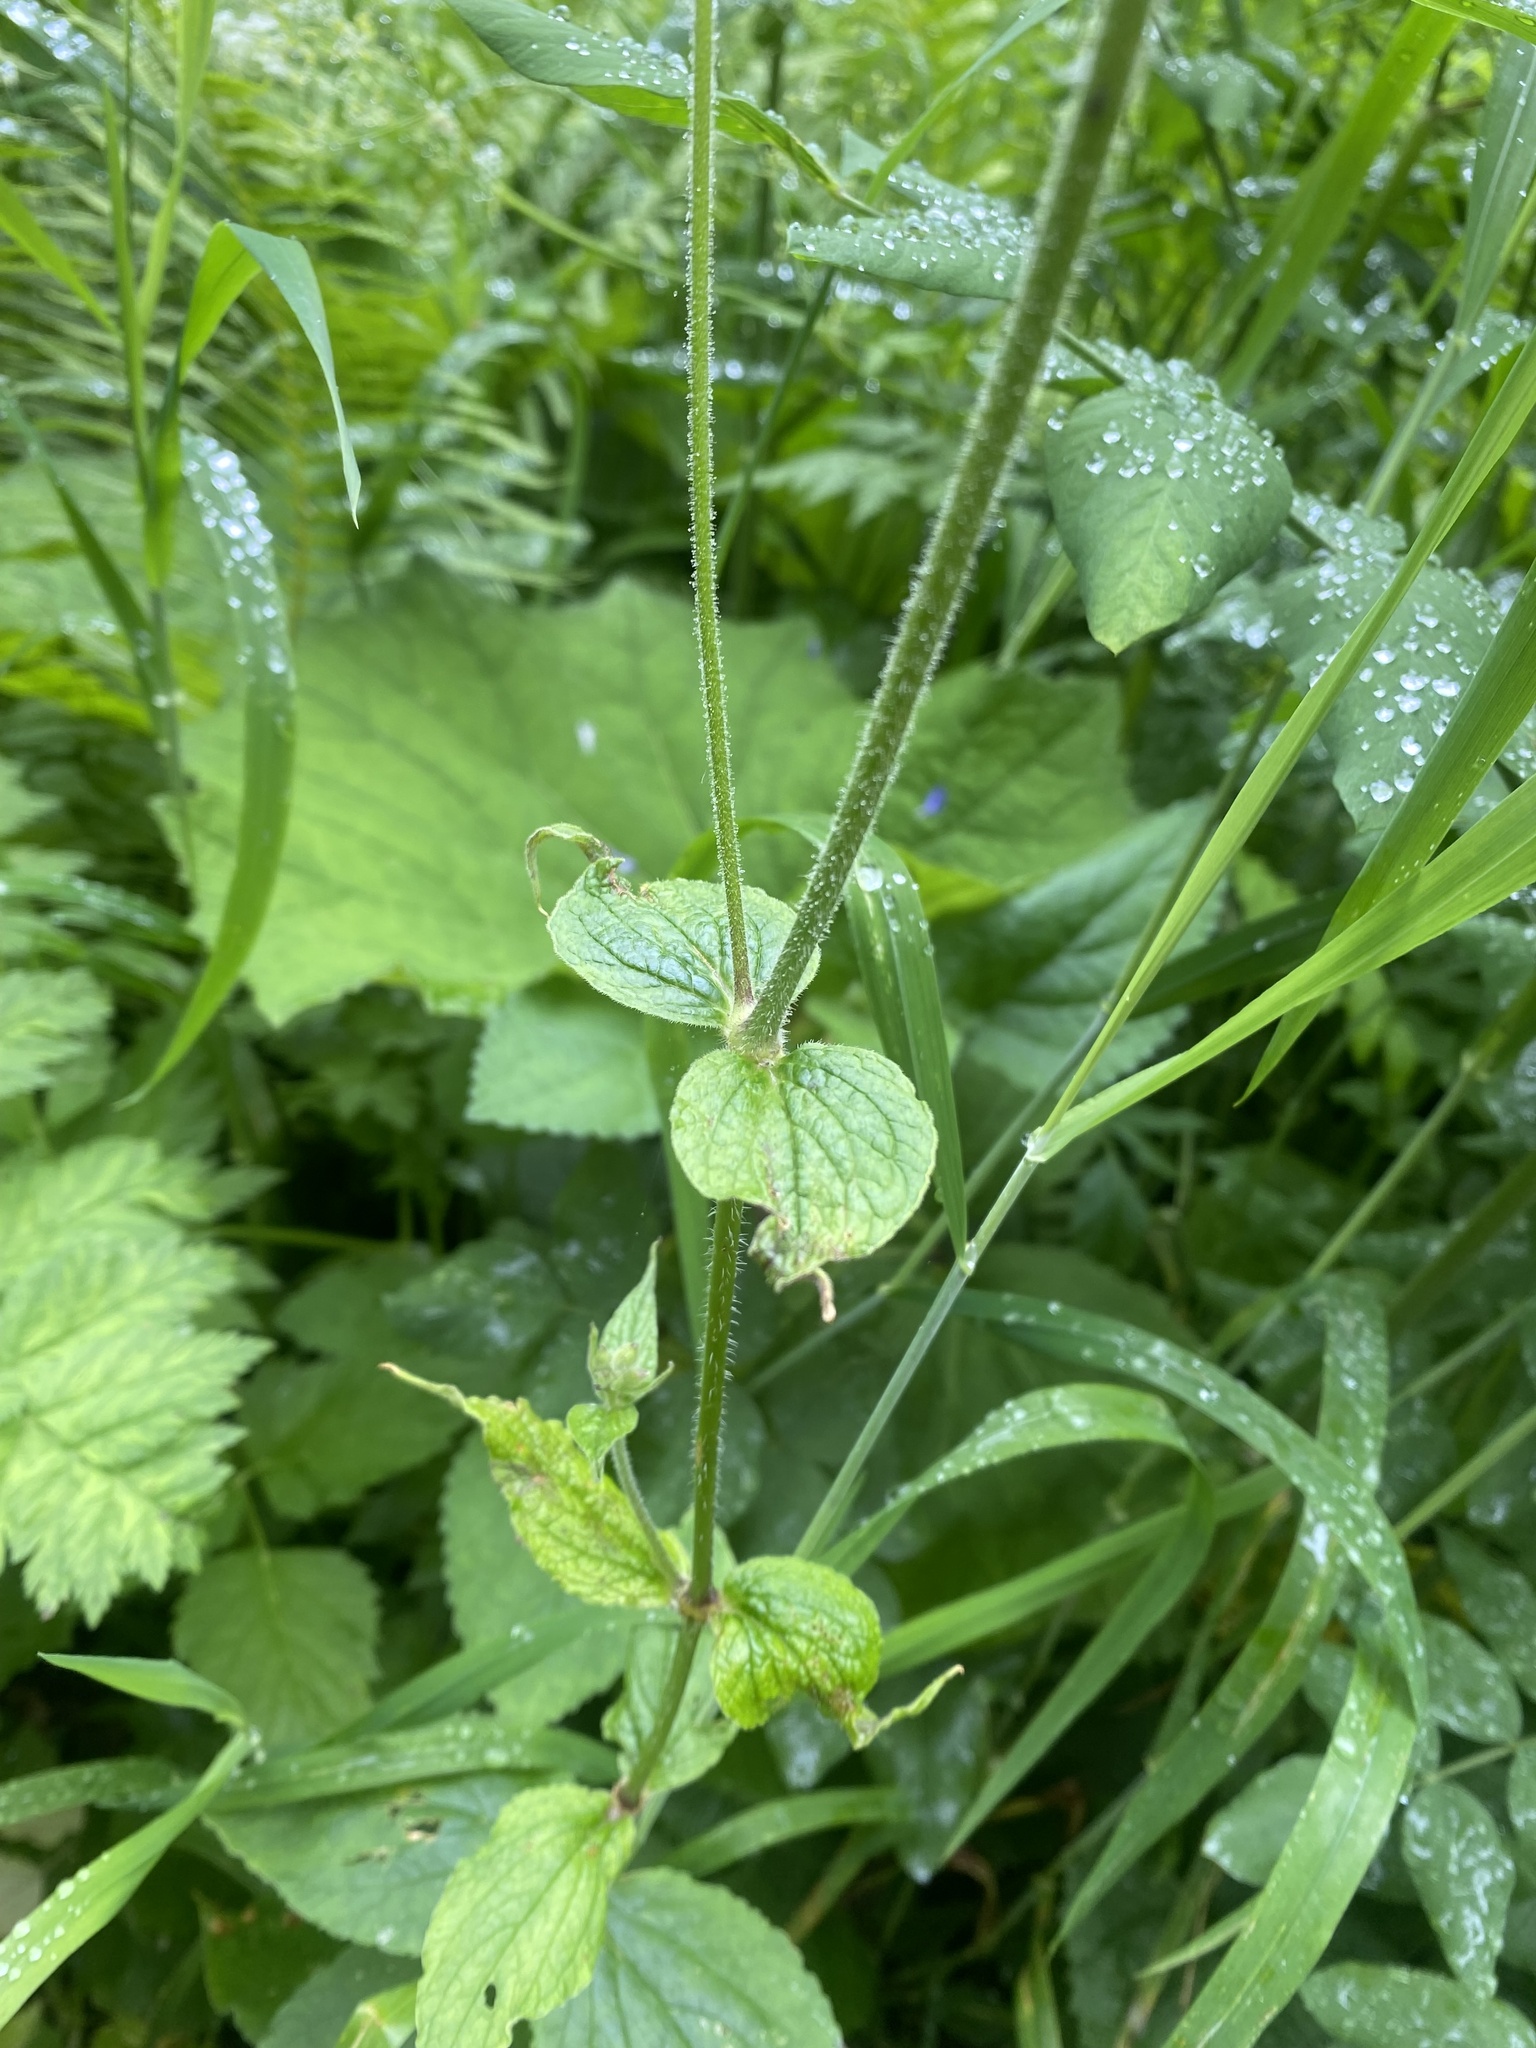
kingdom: Plantae
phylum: Tracheophyta
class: Magnoliopsida
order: Caryophyllales
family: Caryophyllaceae
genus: Silene
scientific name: Silene
